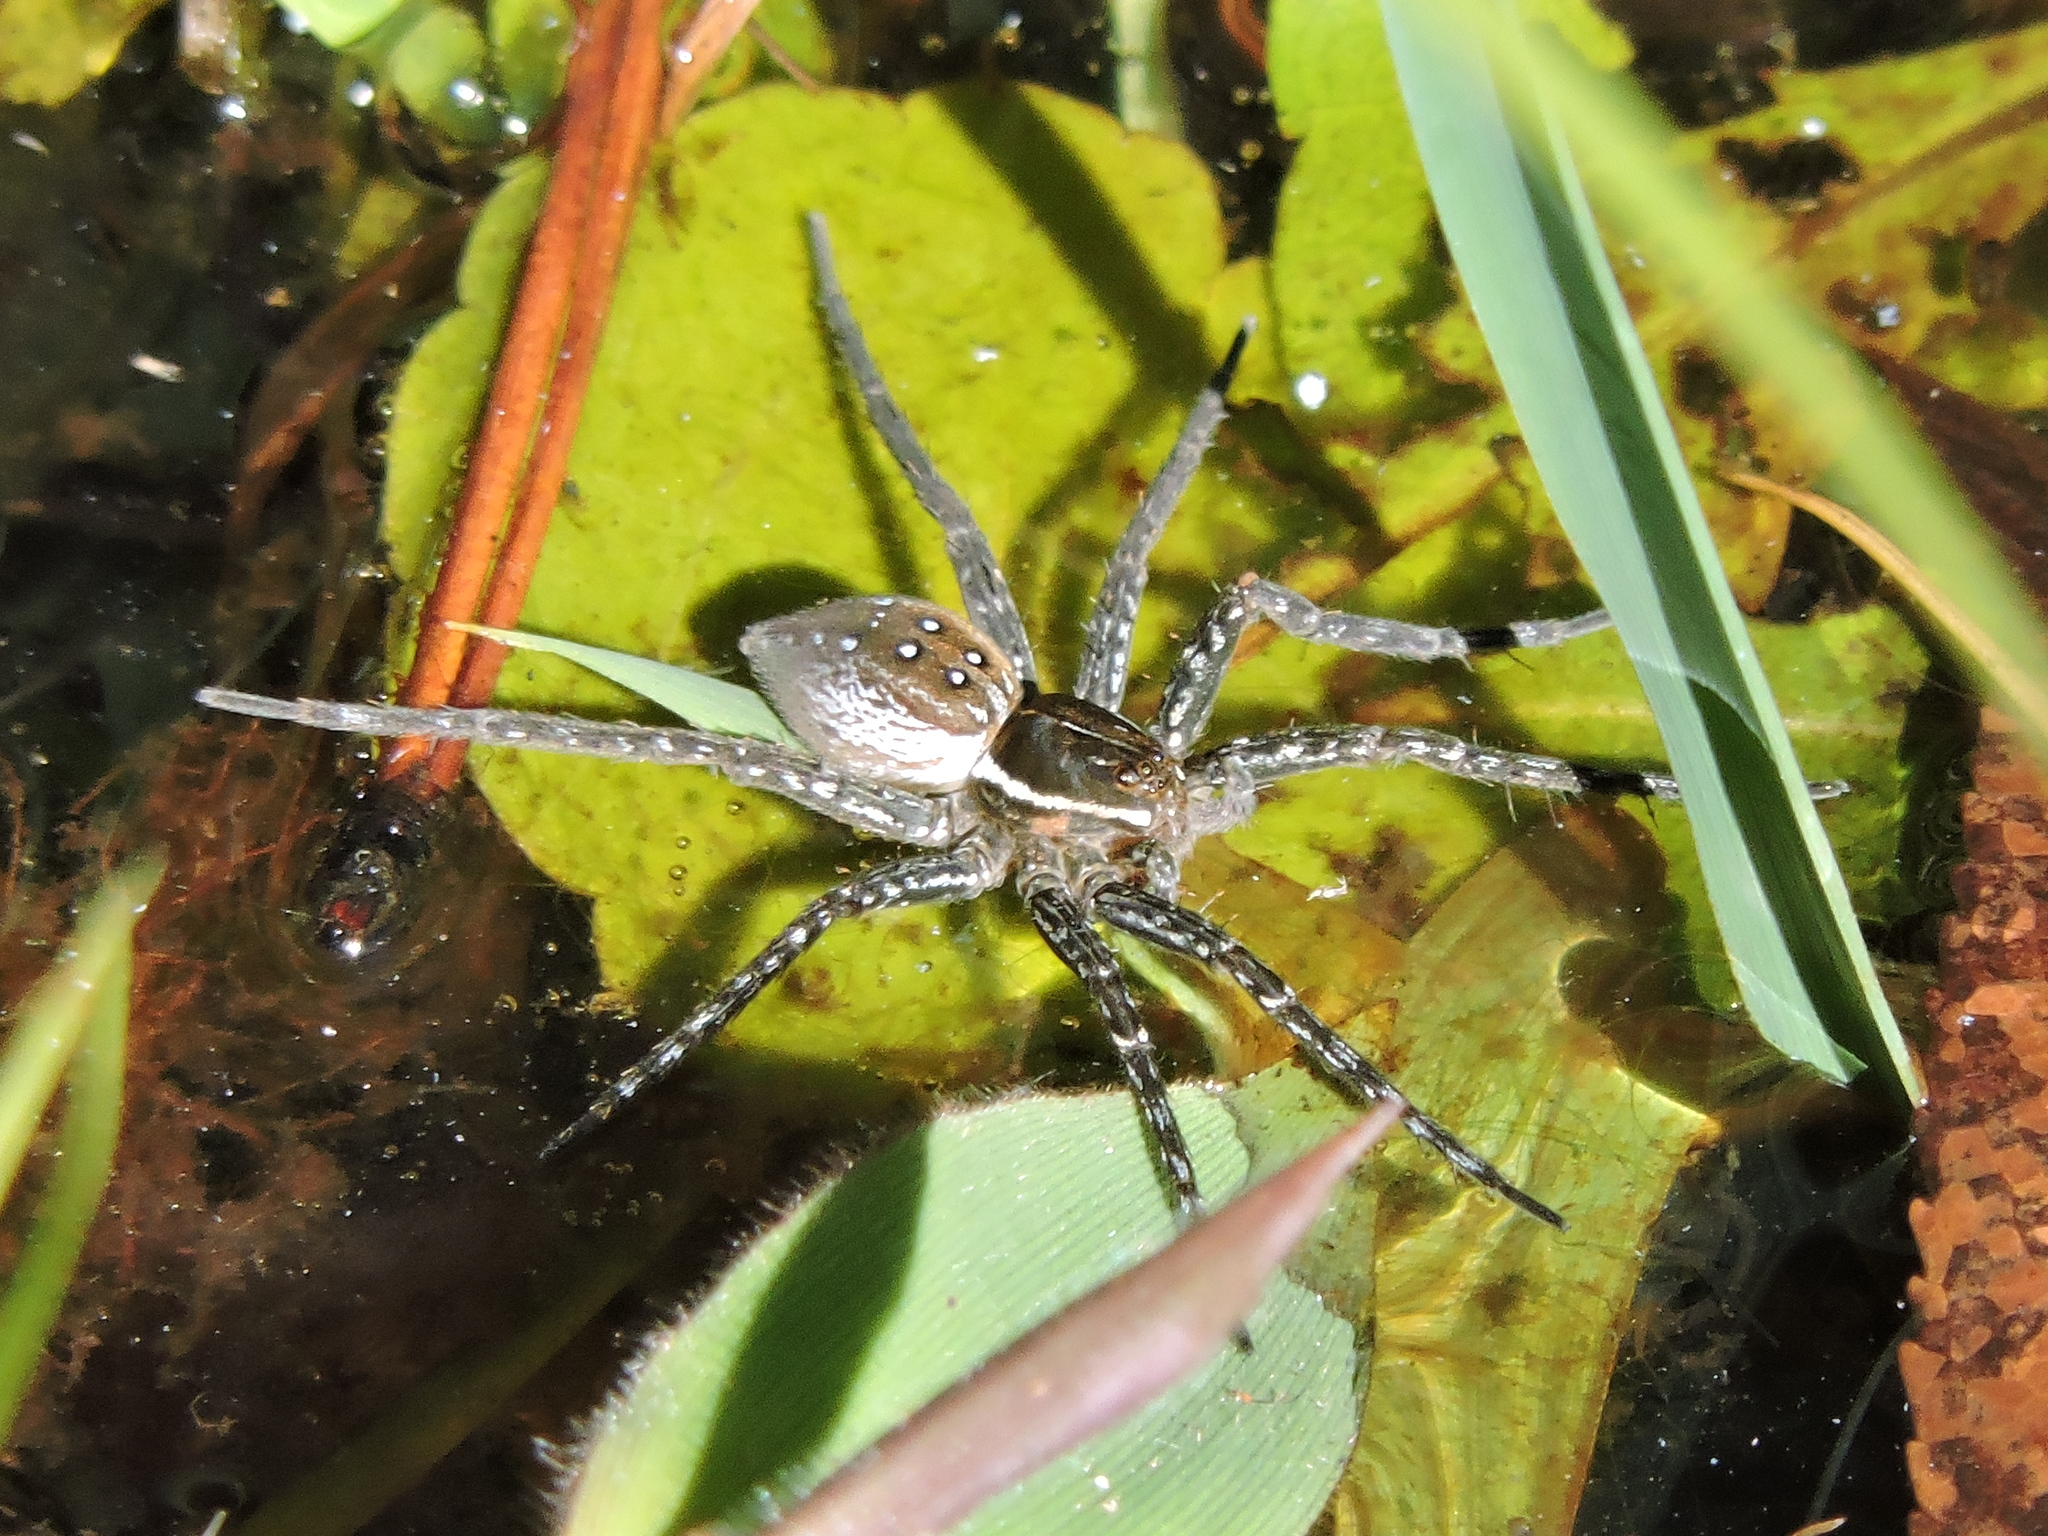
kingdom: Animalia
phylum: Arthropoda
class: Arachnida
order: Araneae
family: Pisauridae
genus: Dolomedes
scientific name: Dolomedes triton
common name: Six-spotted fishing spider
